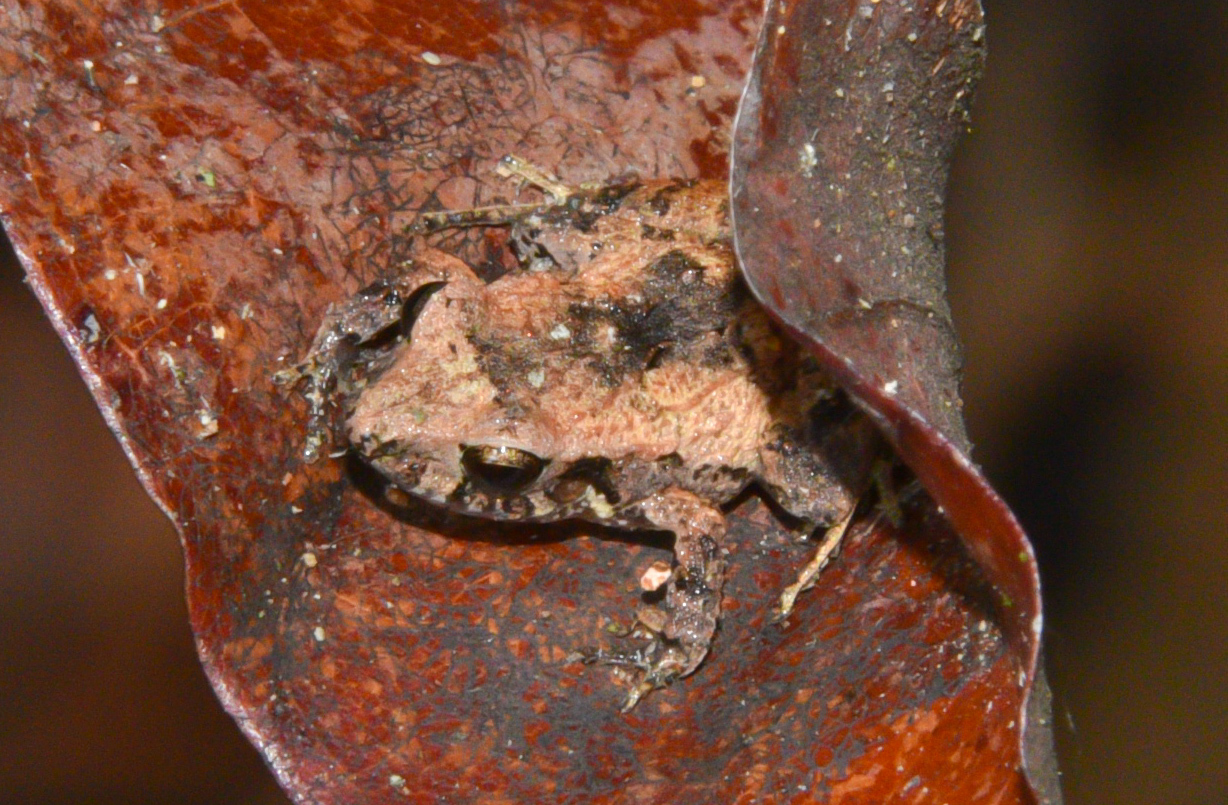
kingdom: Animalia
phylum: Chordata
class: Amphibia
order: Anura
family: Craugastoridae
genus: Craugastor
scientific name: Craugastor stejnegerianus
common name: Stejneger's robber frog
